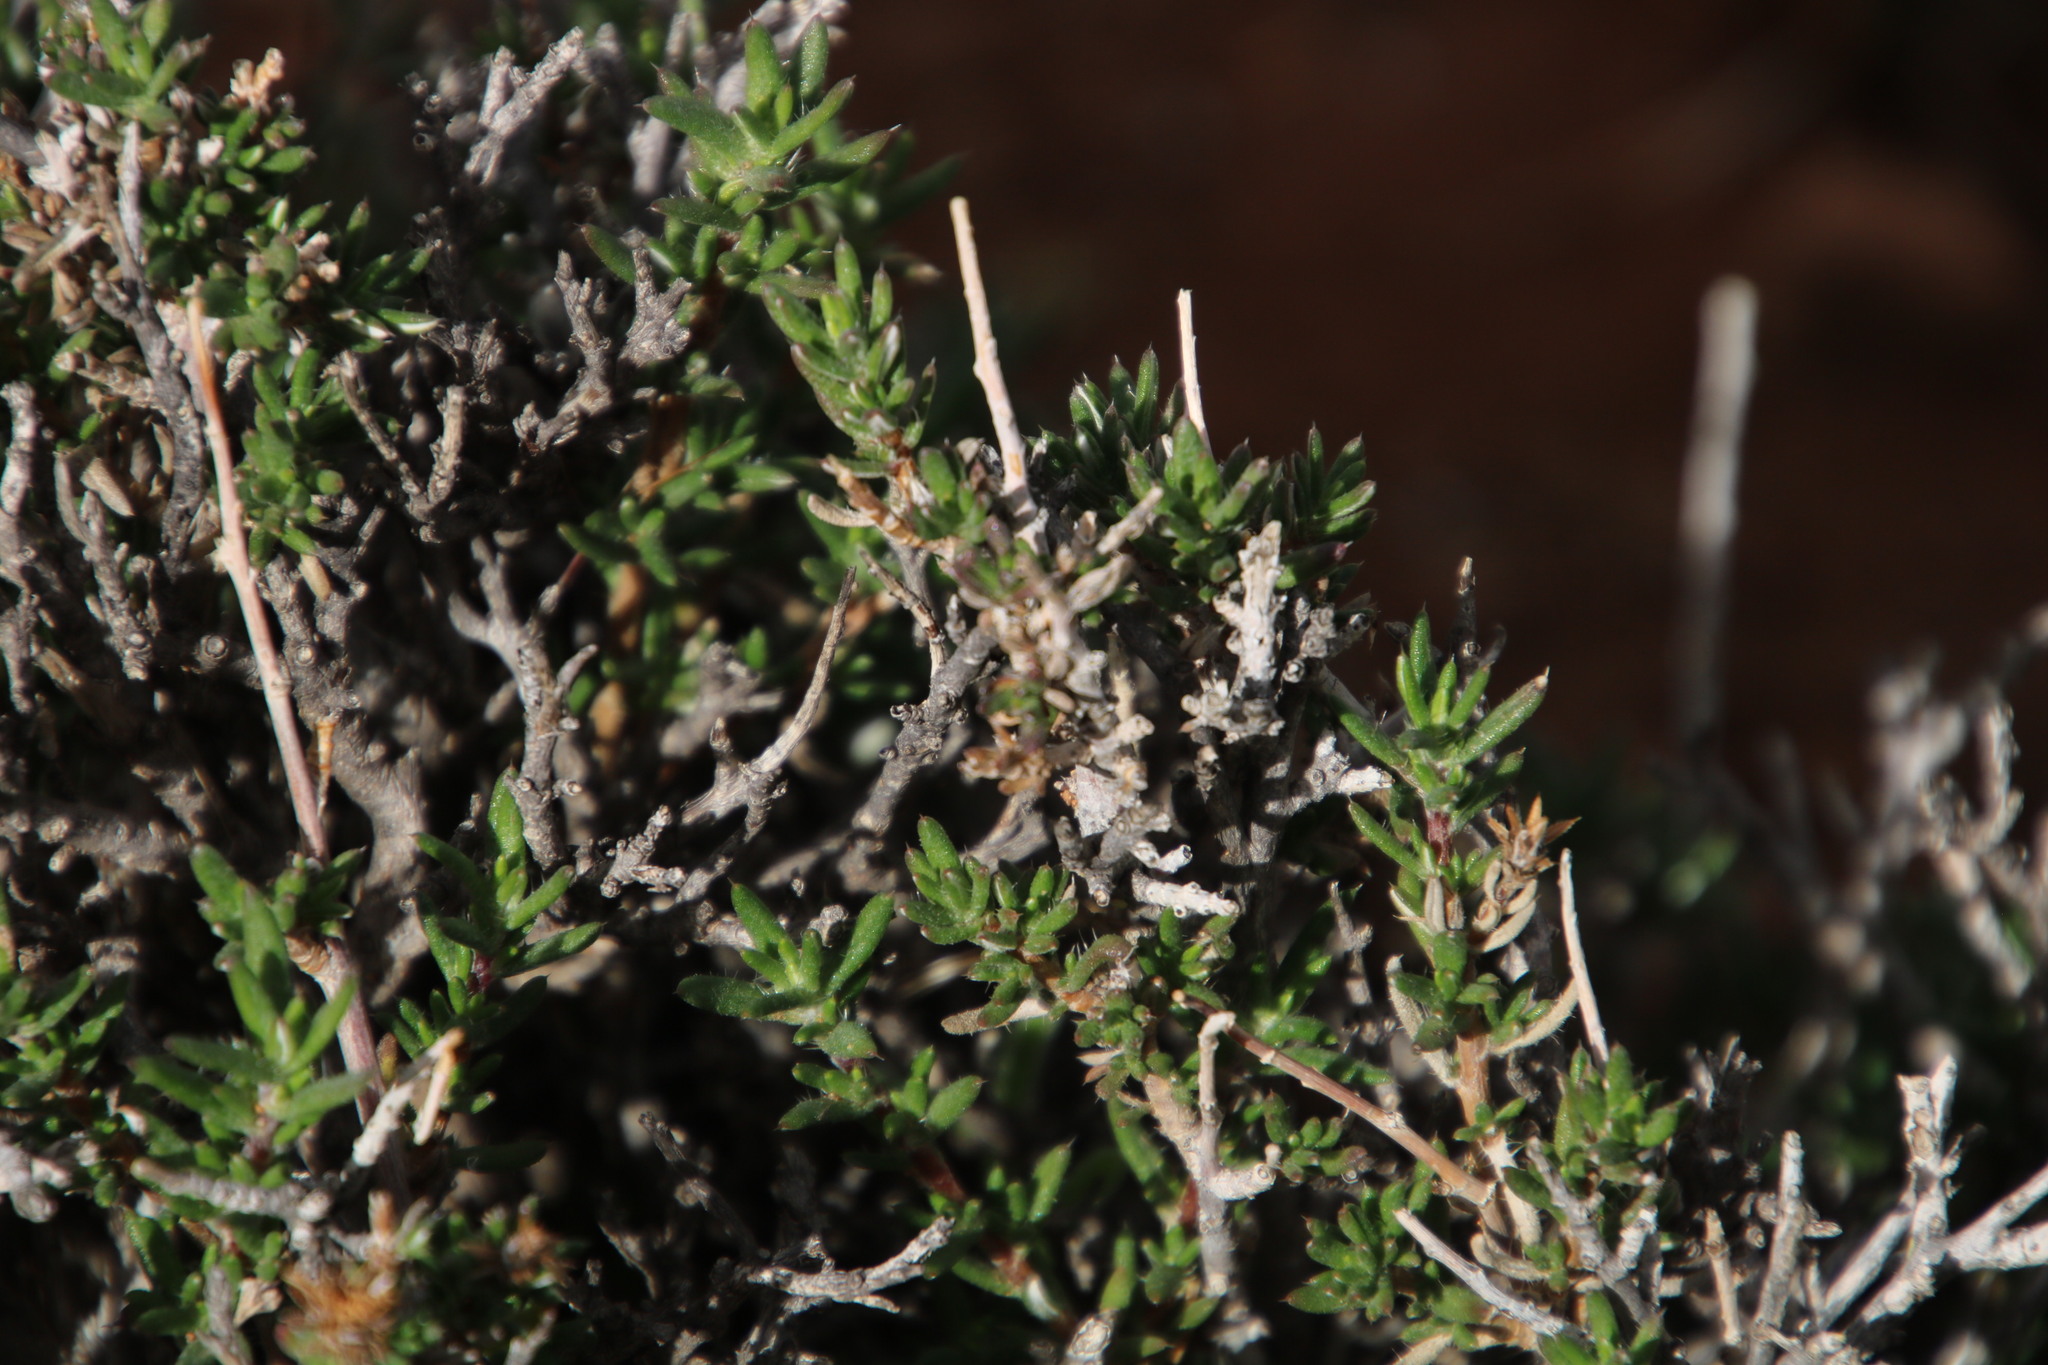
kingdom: Plantae
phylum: Tracheophyta
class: Magnoliopsida
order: Asterales
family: Asteraceae
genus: Gorteria
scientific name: Gorteria alienata
